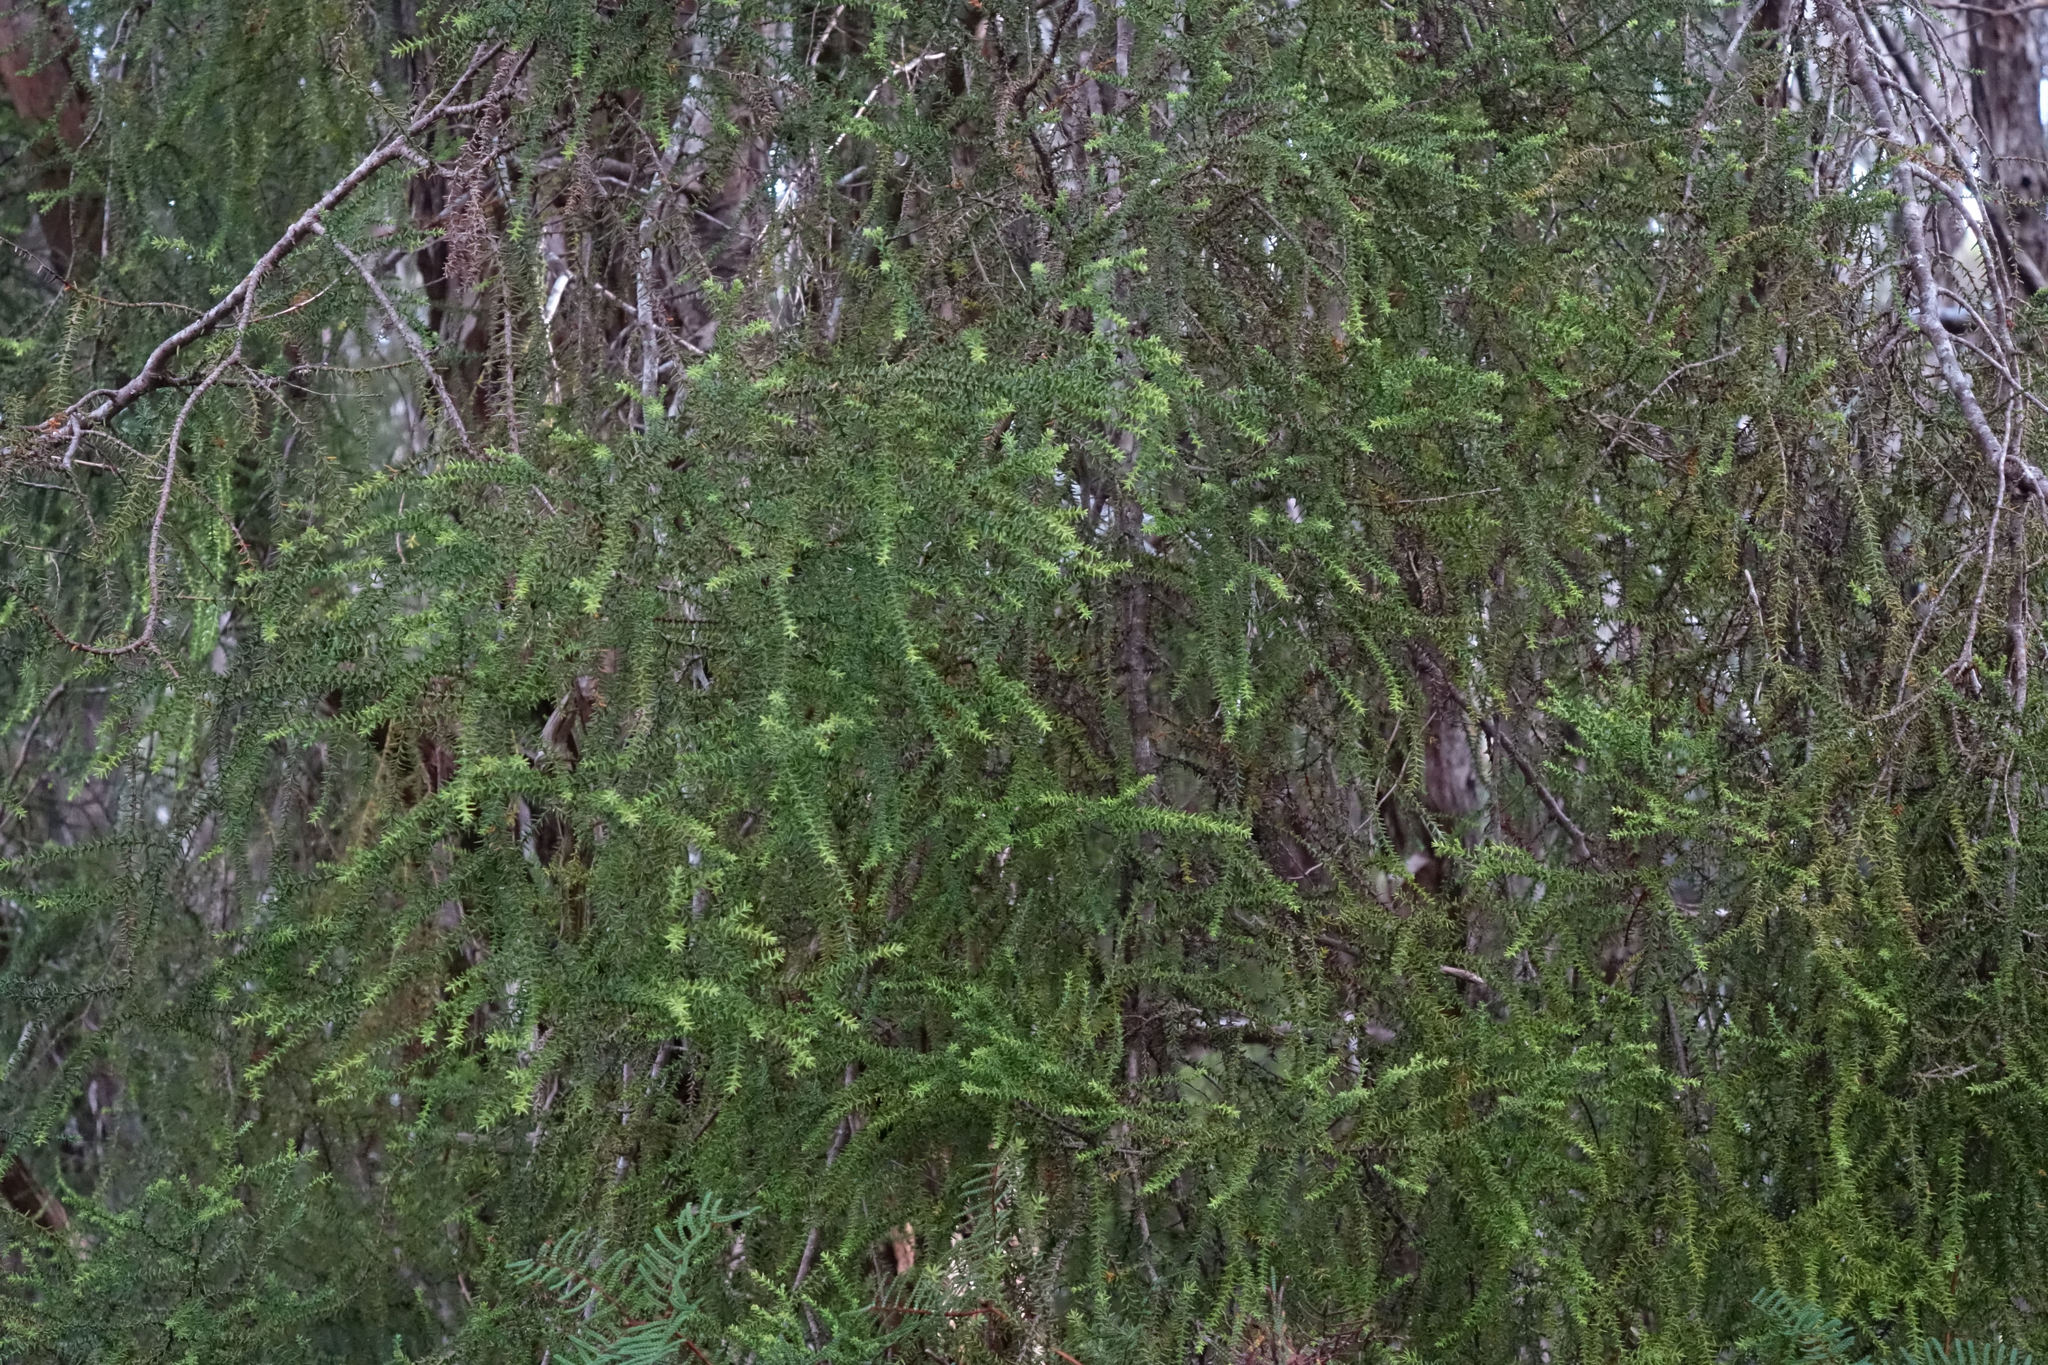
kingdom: Plantae
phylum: Tracheophyta
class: Pinopsida
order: Pinales
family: Podocarpaceae
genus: Lepidothamnus
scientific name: Lepidothamnus intermedius
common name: Yellow silver pine
